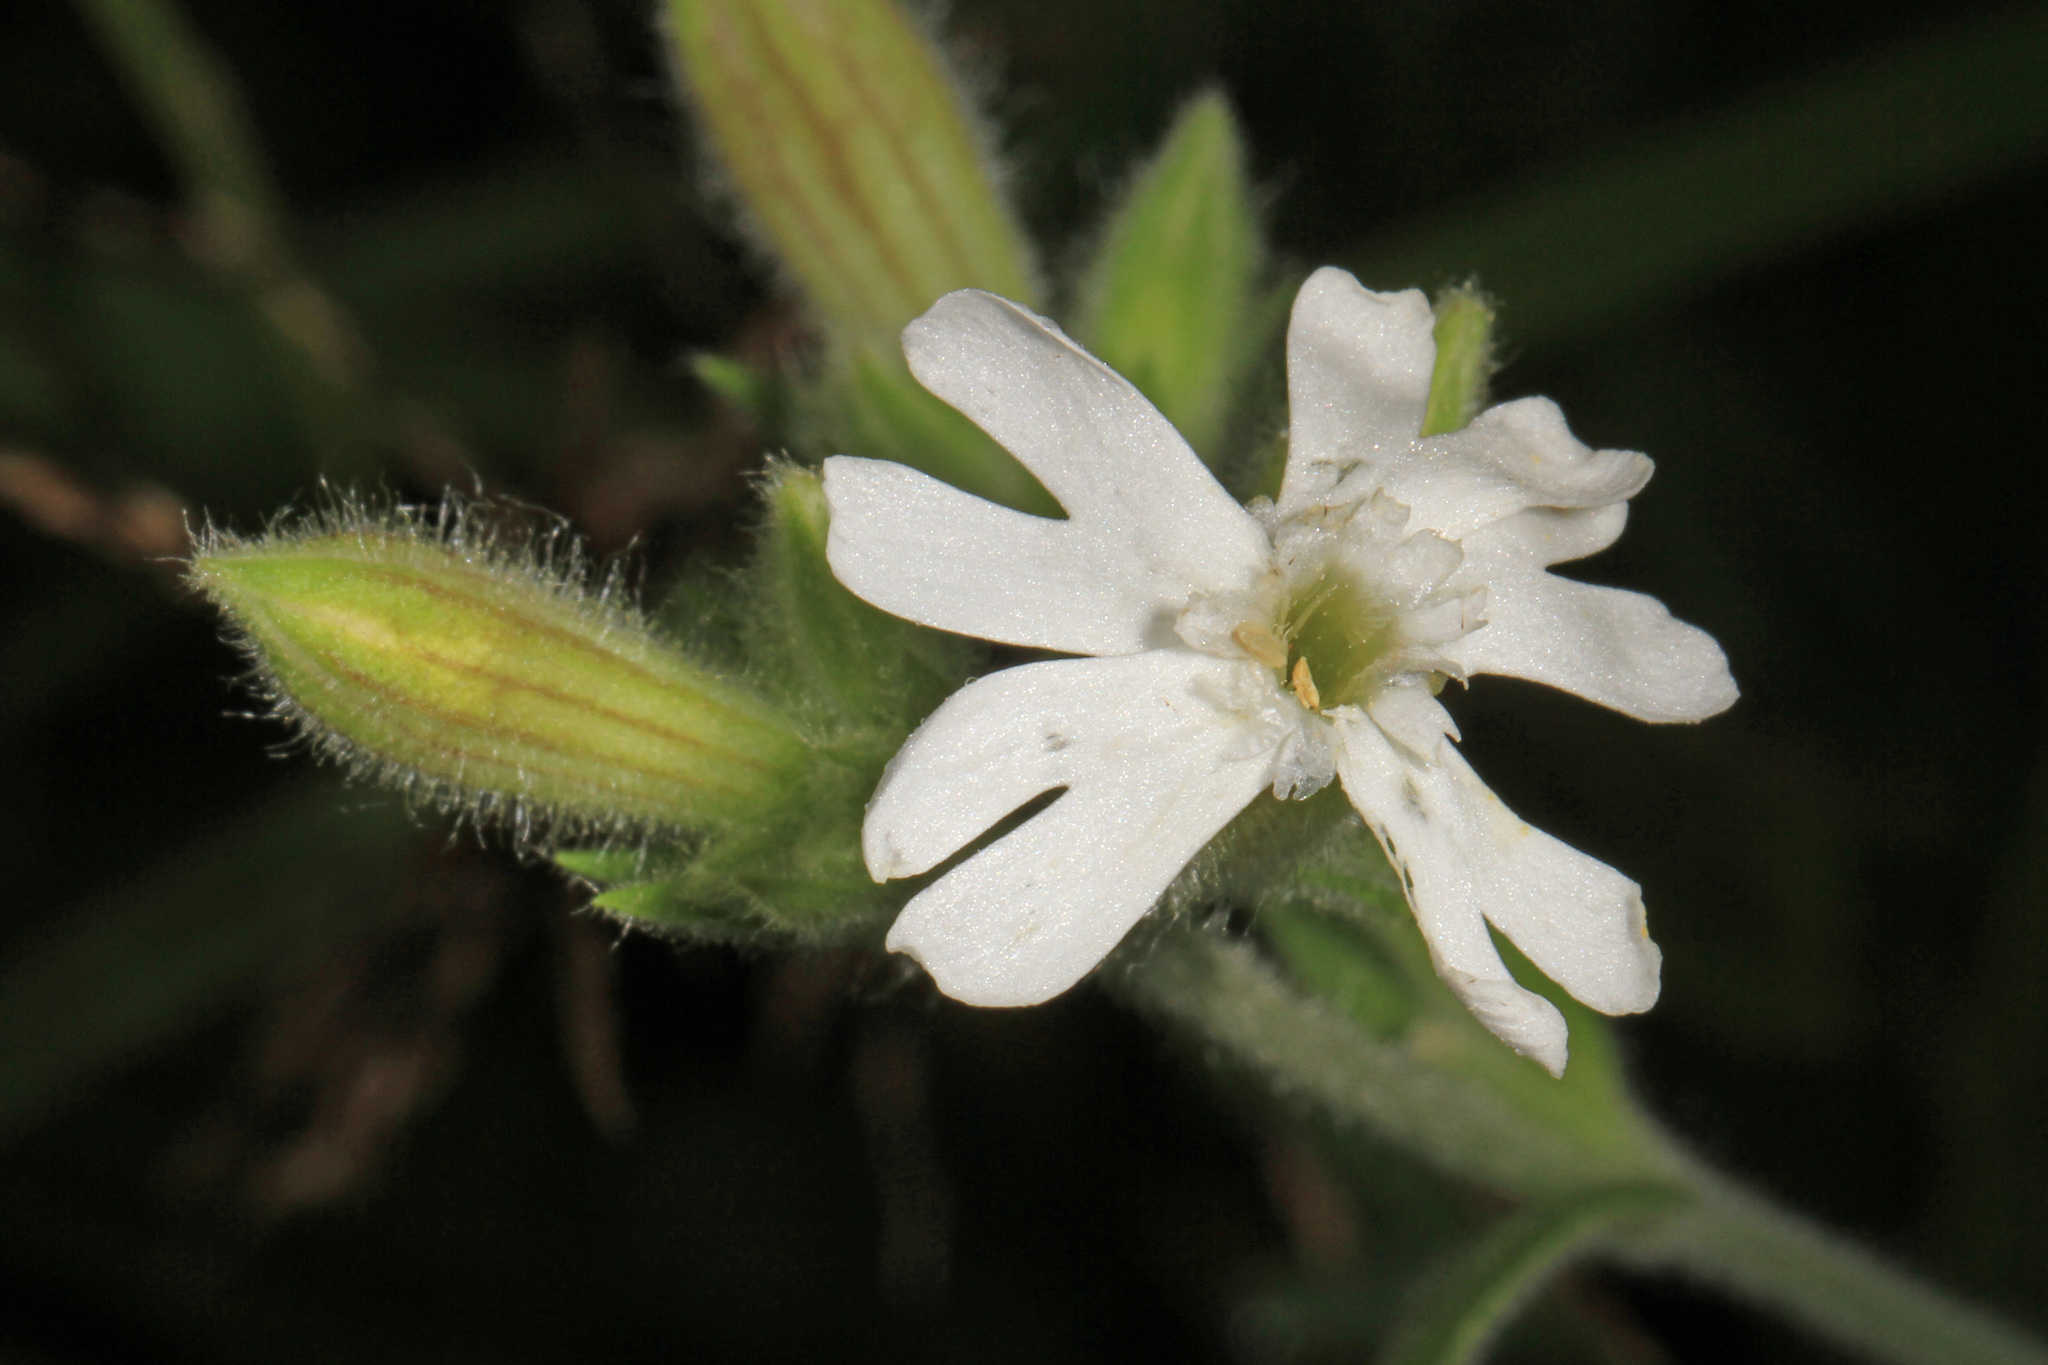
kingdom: Plantae
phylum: Tracheophyta
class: Magnoliopsida
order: Caryophyllales
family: Caryophyllaceae
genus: Silene
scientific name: Silene latifolia
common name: White campion
